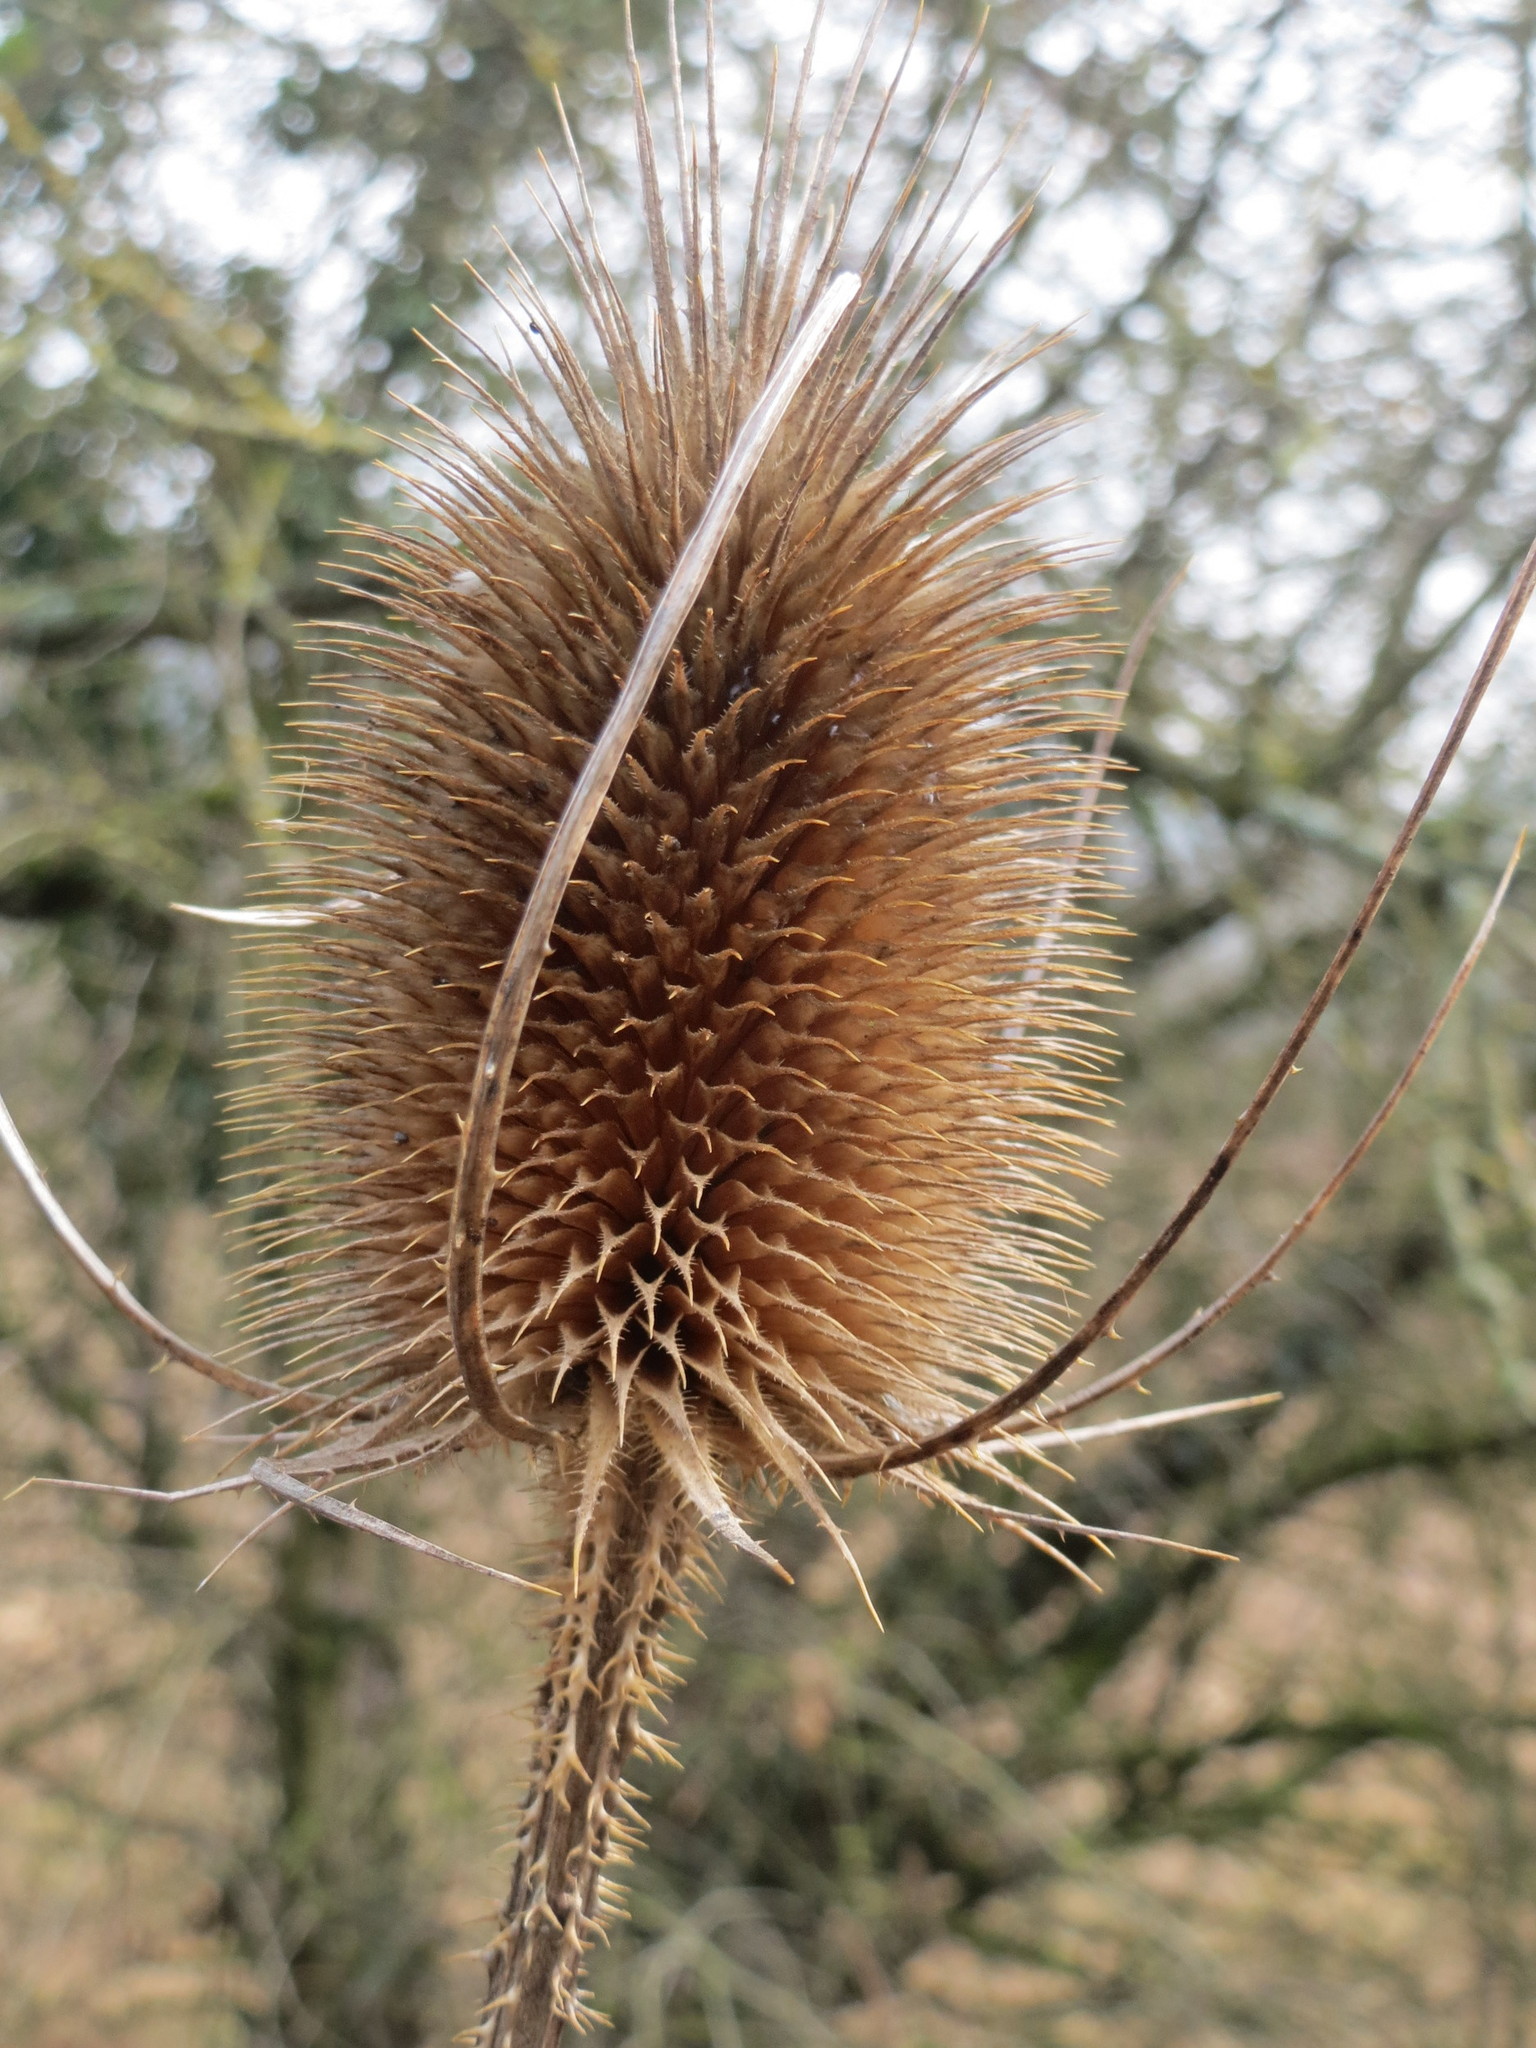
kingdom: Plantae
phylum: Tracheophyta
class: Magnoliopsida
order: Dipsacales
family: Caprifoliaceae
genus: Dipsacus
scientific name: Dipsacus fullonum
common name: Teasel
